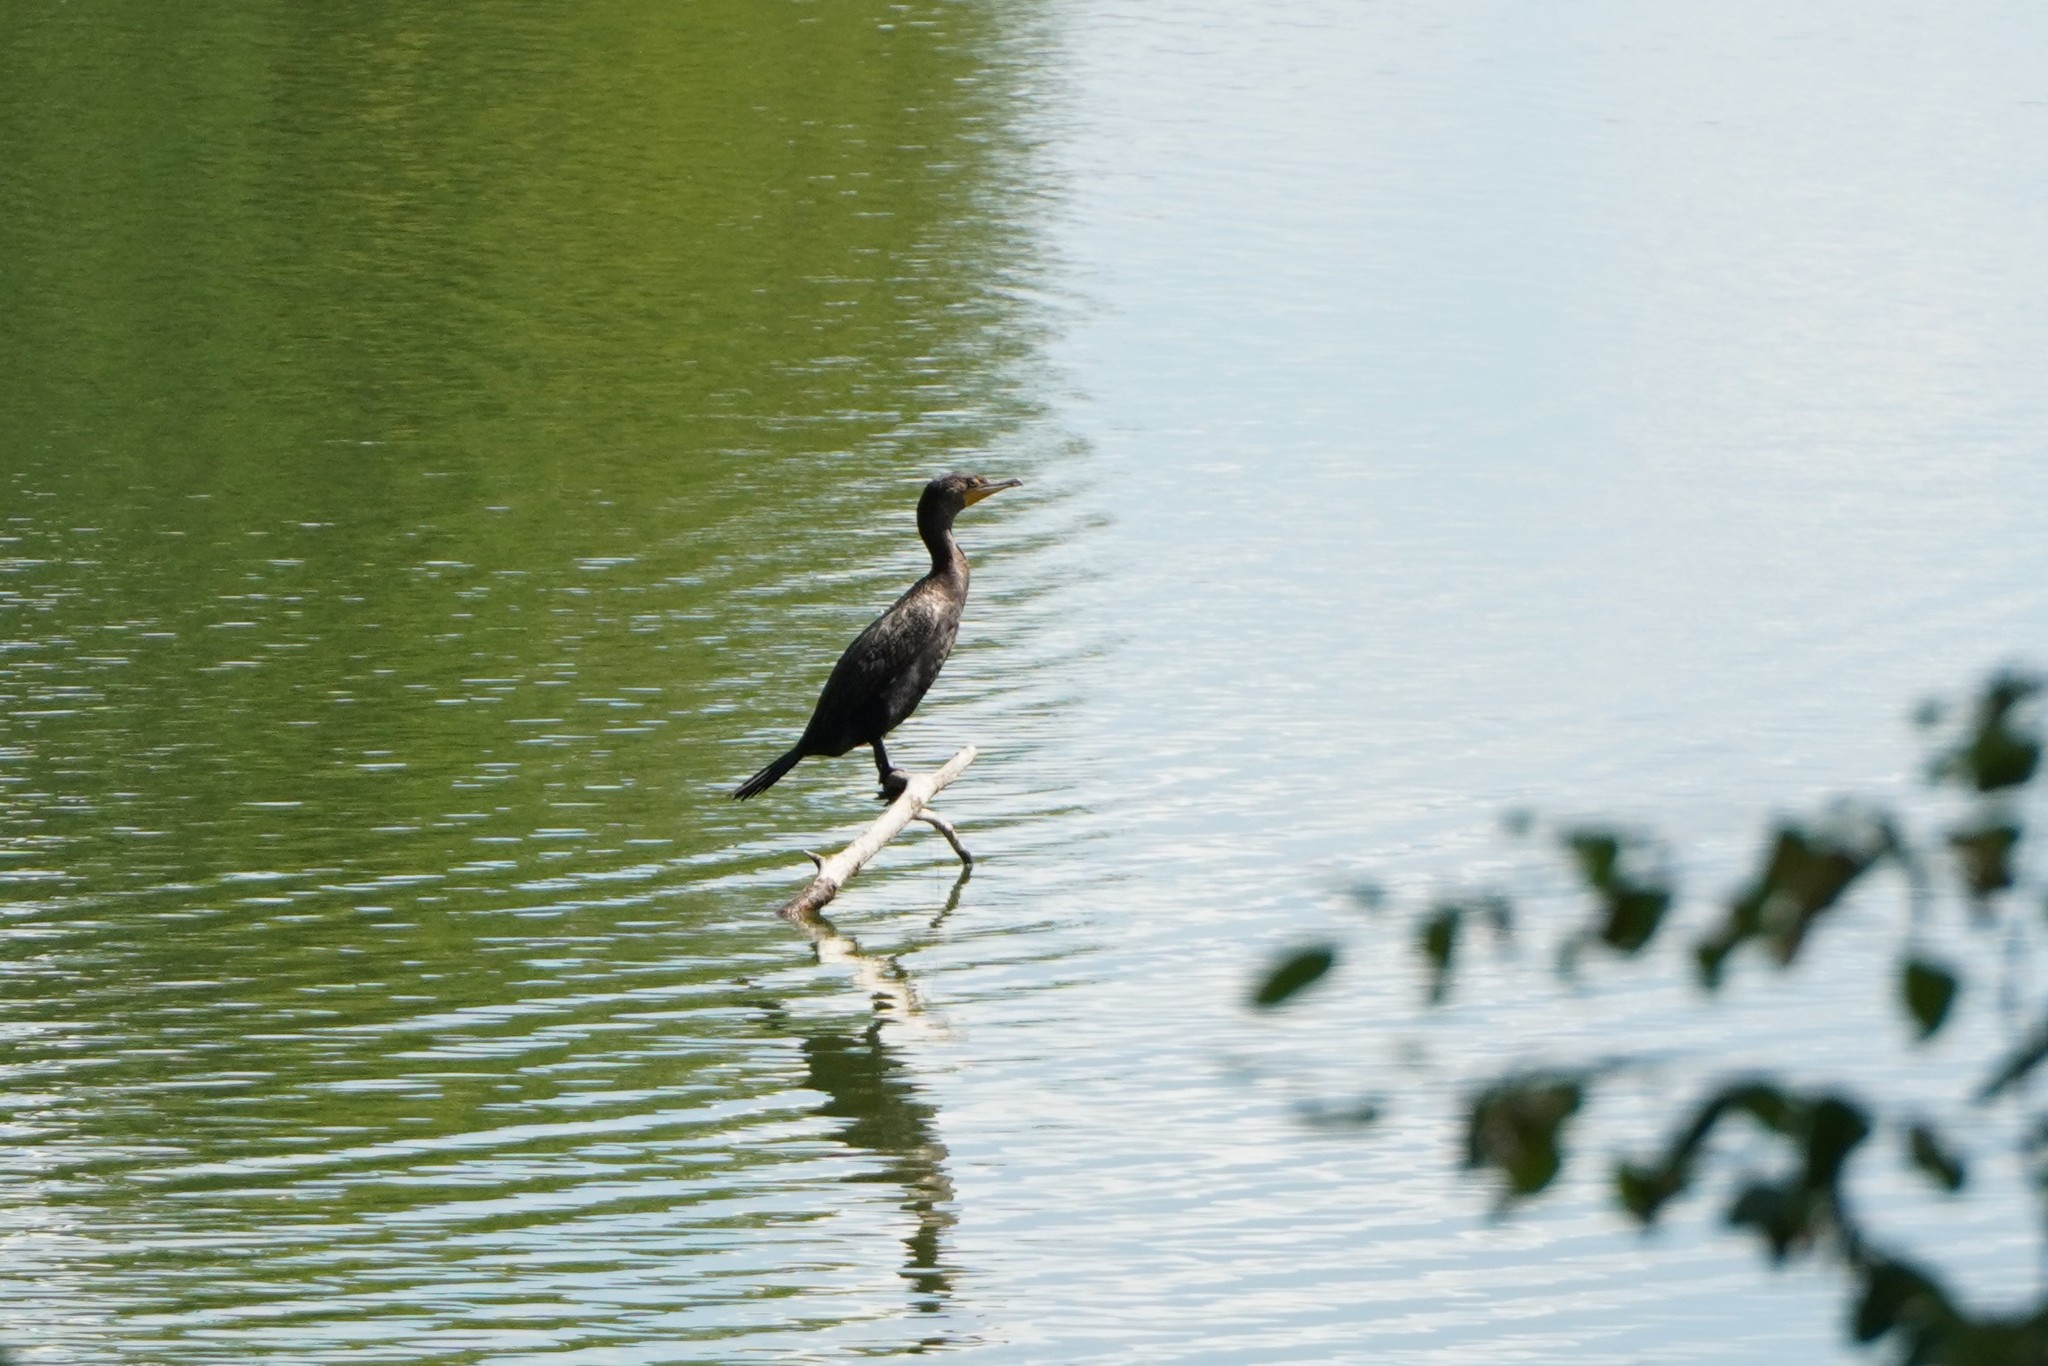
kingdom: Animalia
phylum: Chordata
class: Aves
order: Suliformes
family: Phalacrocoracidae
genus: Phalacrocorax
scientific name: Phalacrocorax auritus
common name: Double-crested cormorant
